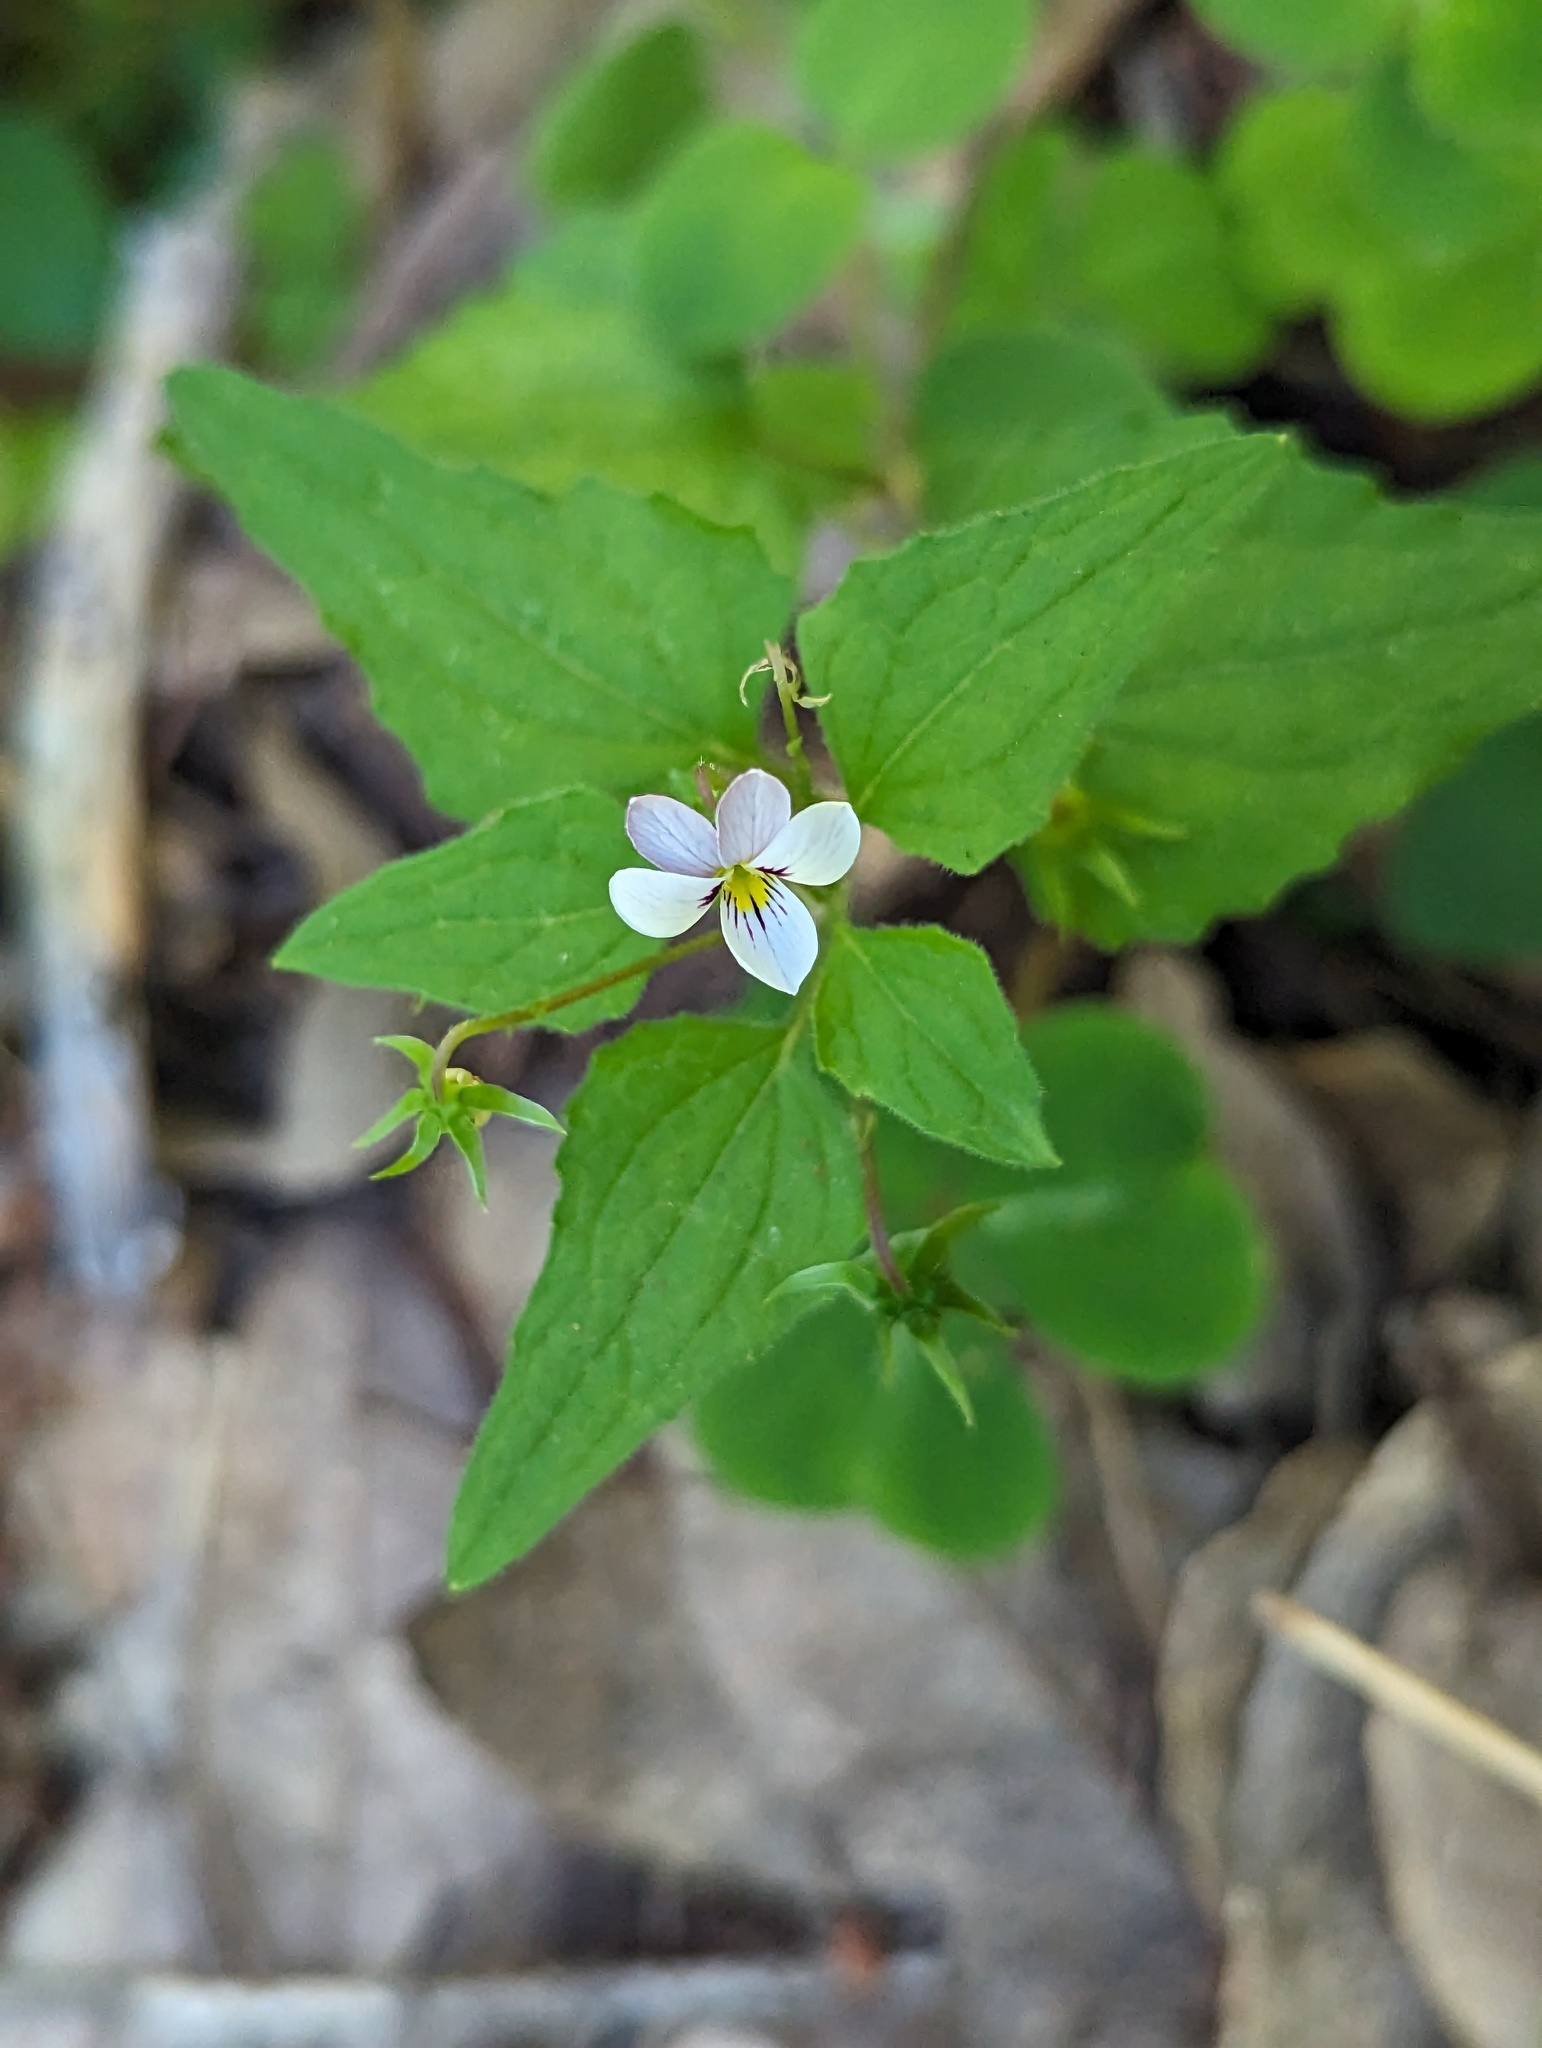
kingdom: Plantae
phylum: Tracheophyta
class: Magnoliopsida
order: Malpighiales
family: Violaceae
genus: Viola
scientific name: Viola ocellata
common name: Western heart's ease
